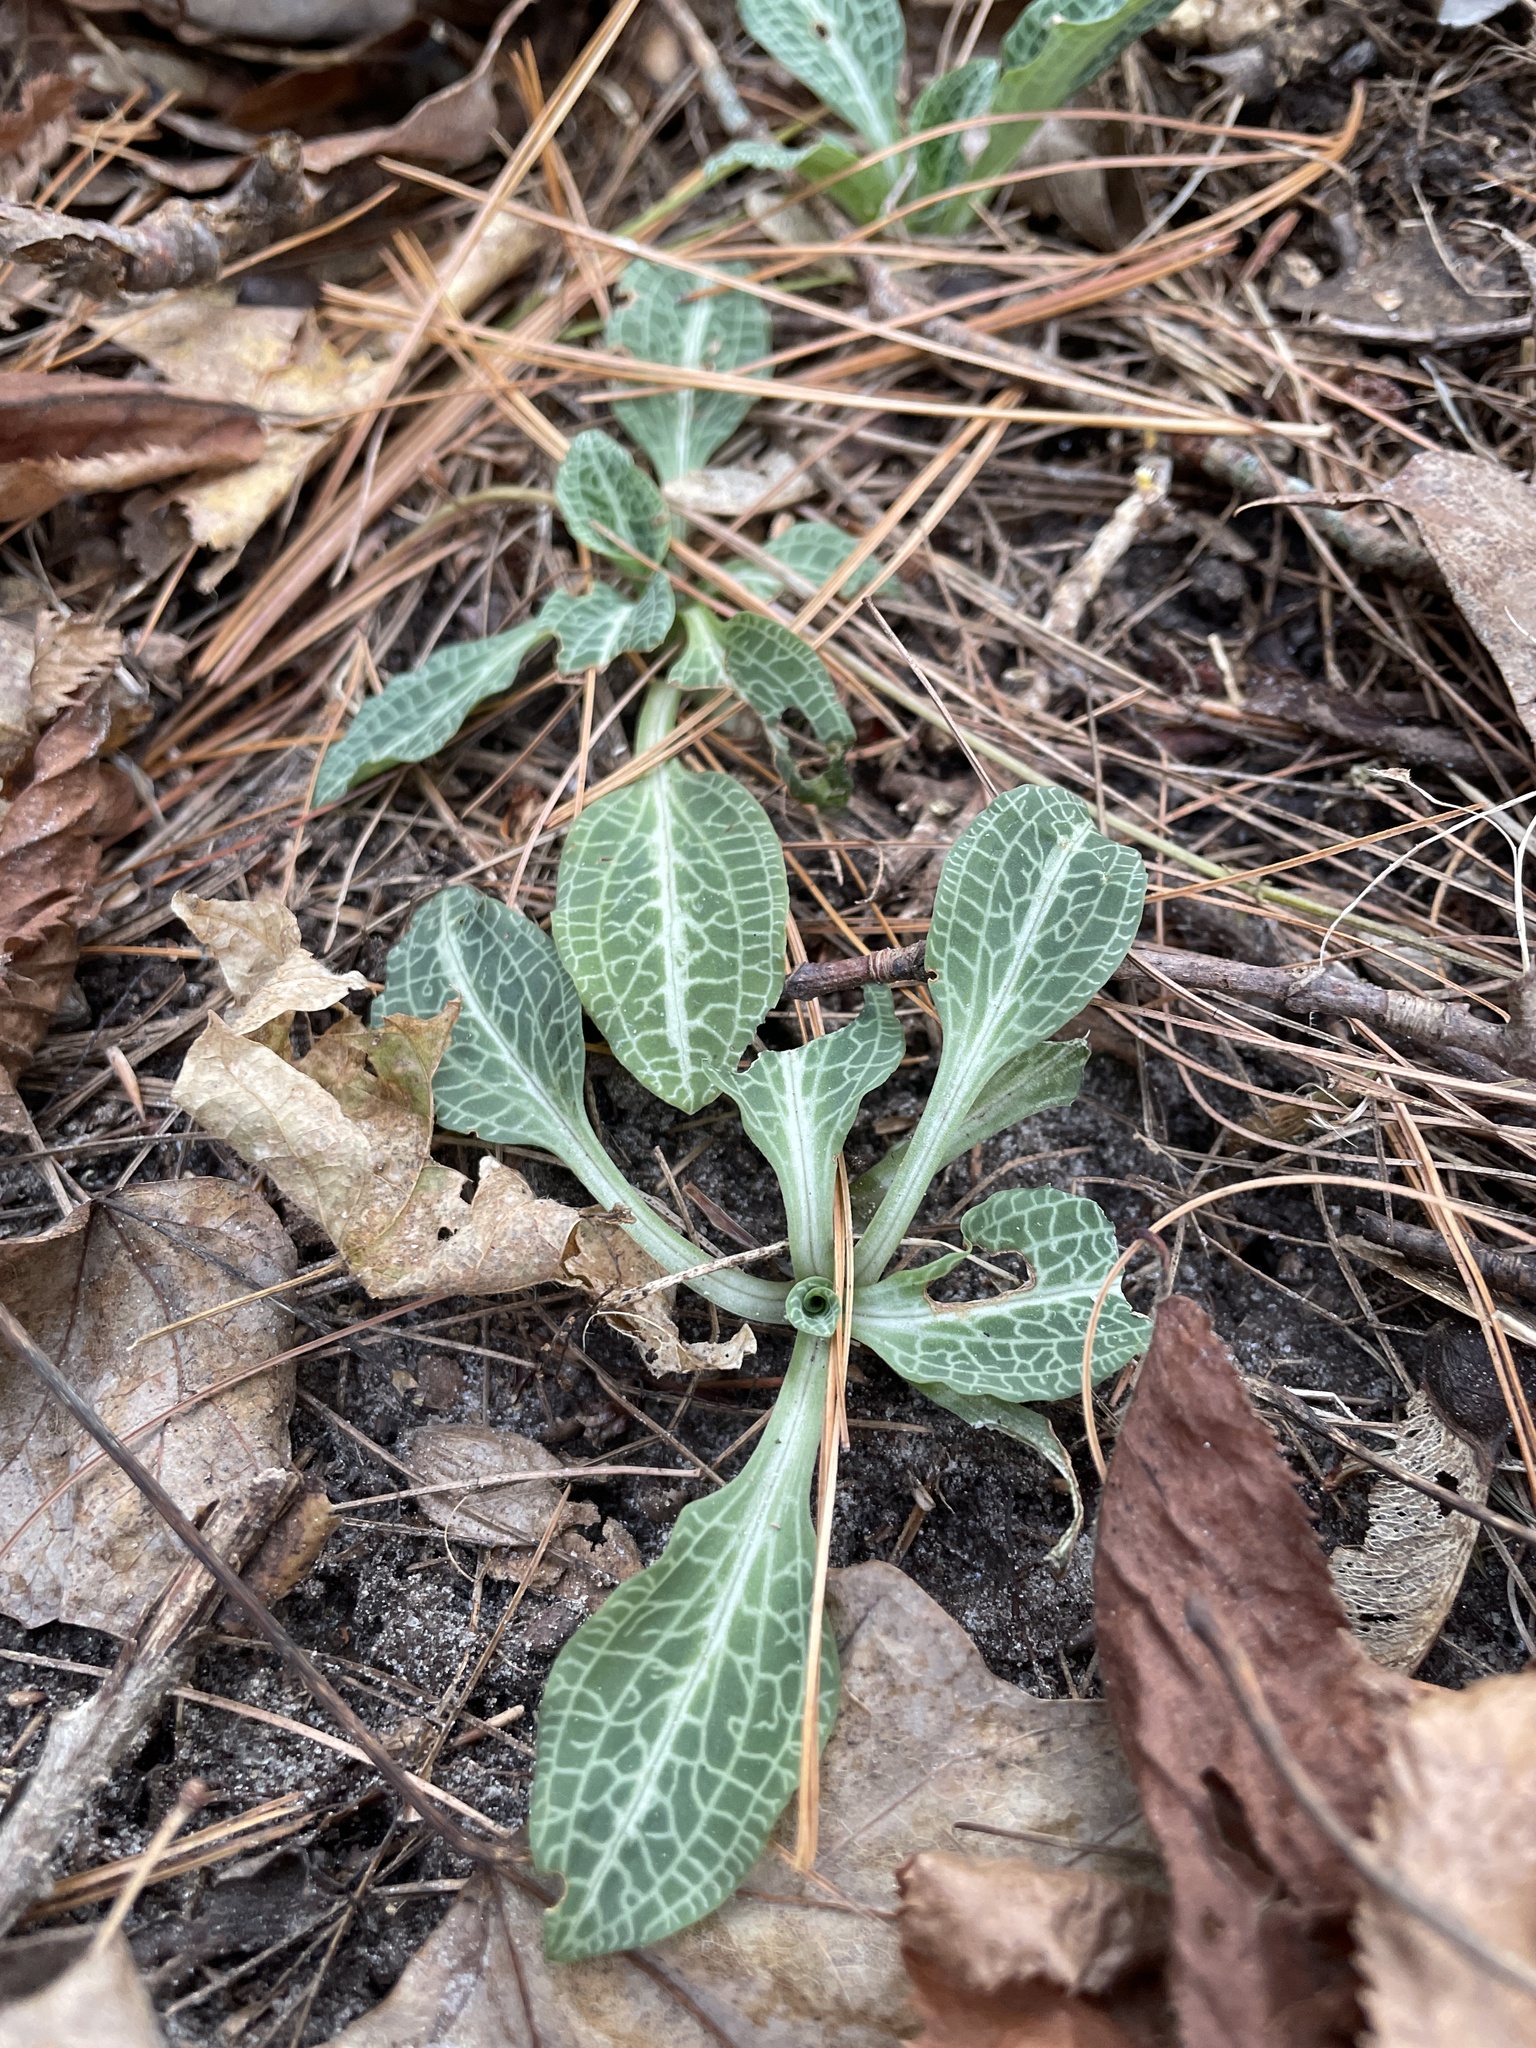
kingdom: Plantae
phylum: Tracheophyta
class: Liliopsida
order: Asparagales
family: Orchidaceae
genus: Goodyera
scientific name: Goodyera pubescens
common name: Downy rattlesnake-plantain
